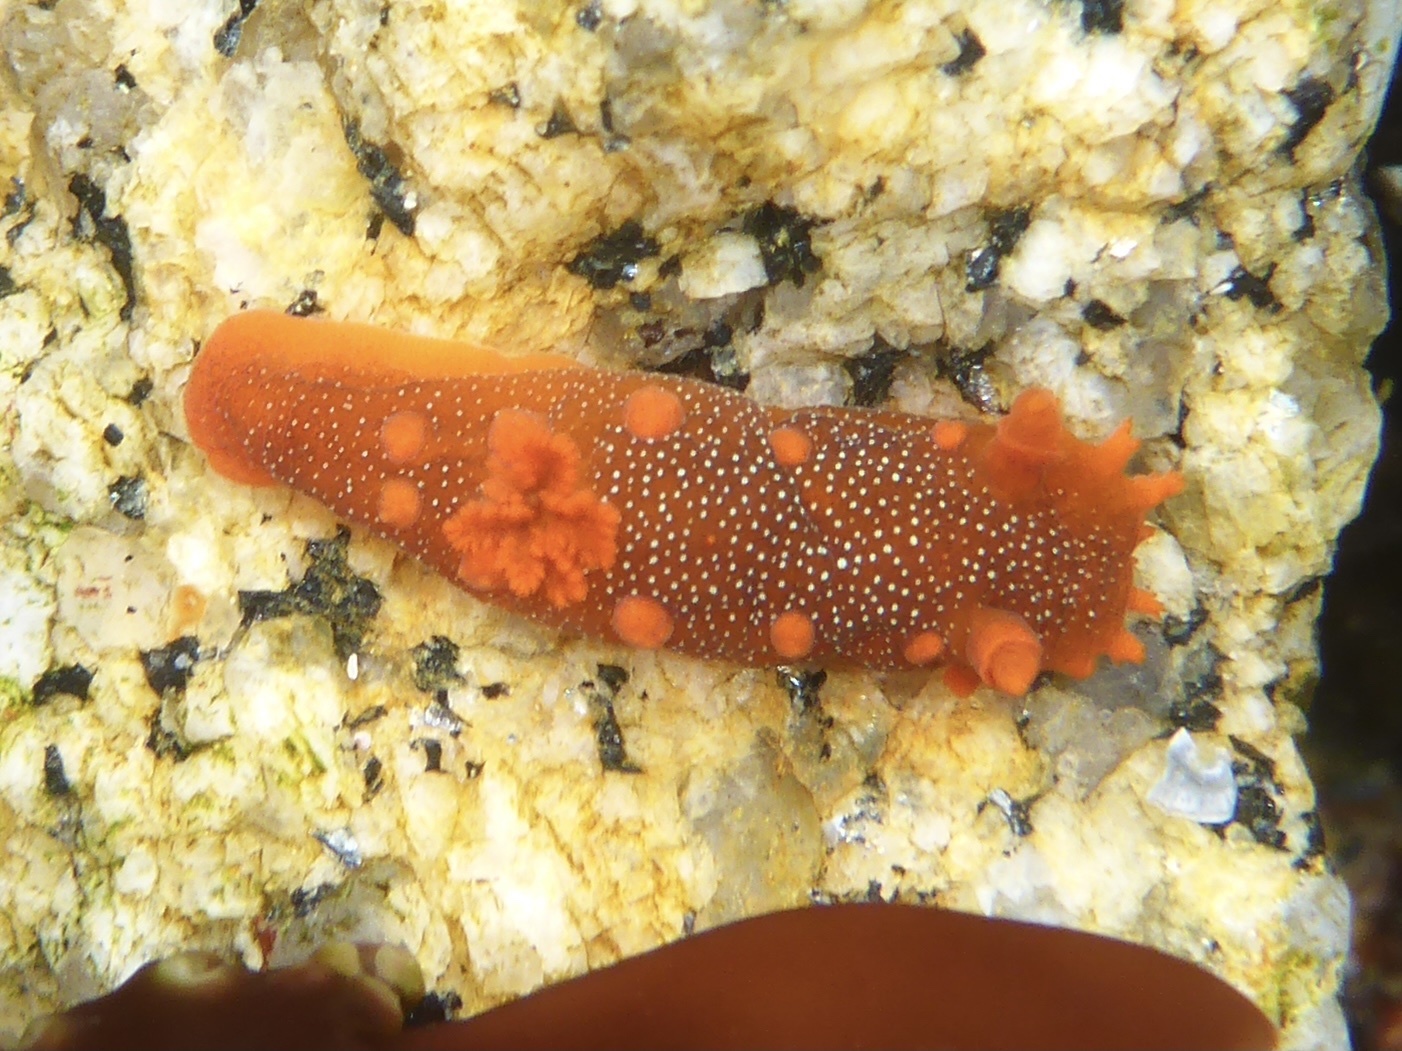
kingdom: Animalia
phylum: Mollusca
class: Gastropoda
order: Nudibranchia
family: Polyceridae
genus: Triopha
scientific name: Triopha maculata
